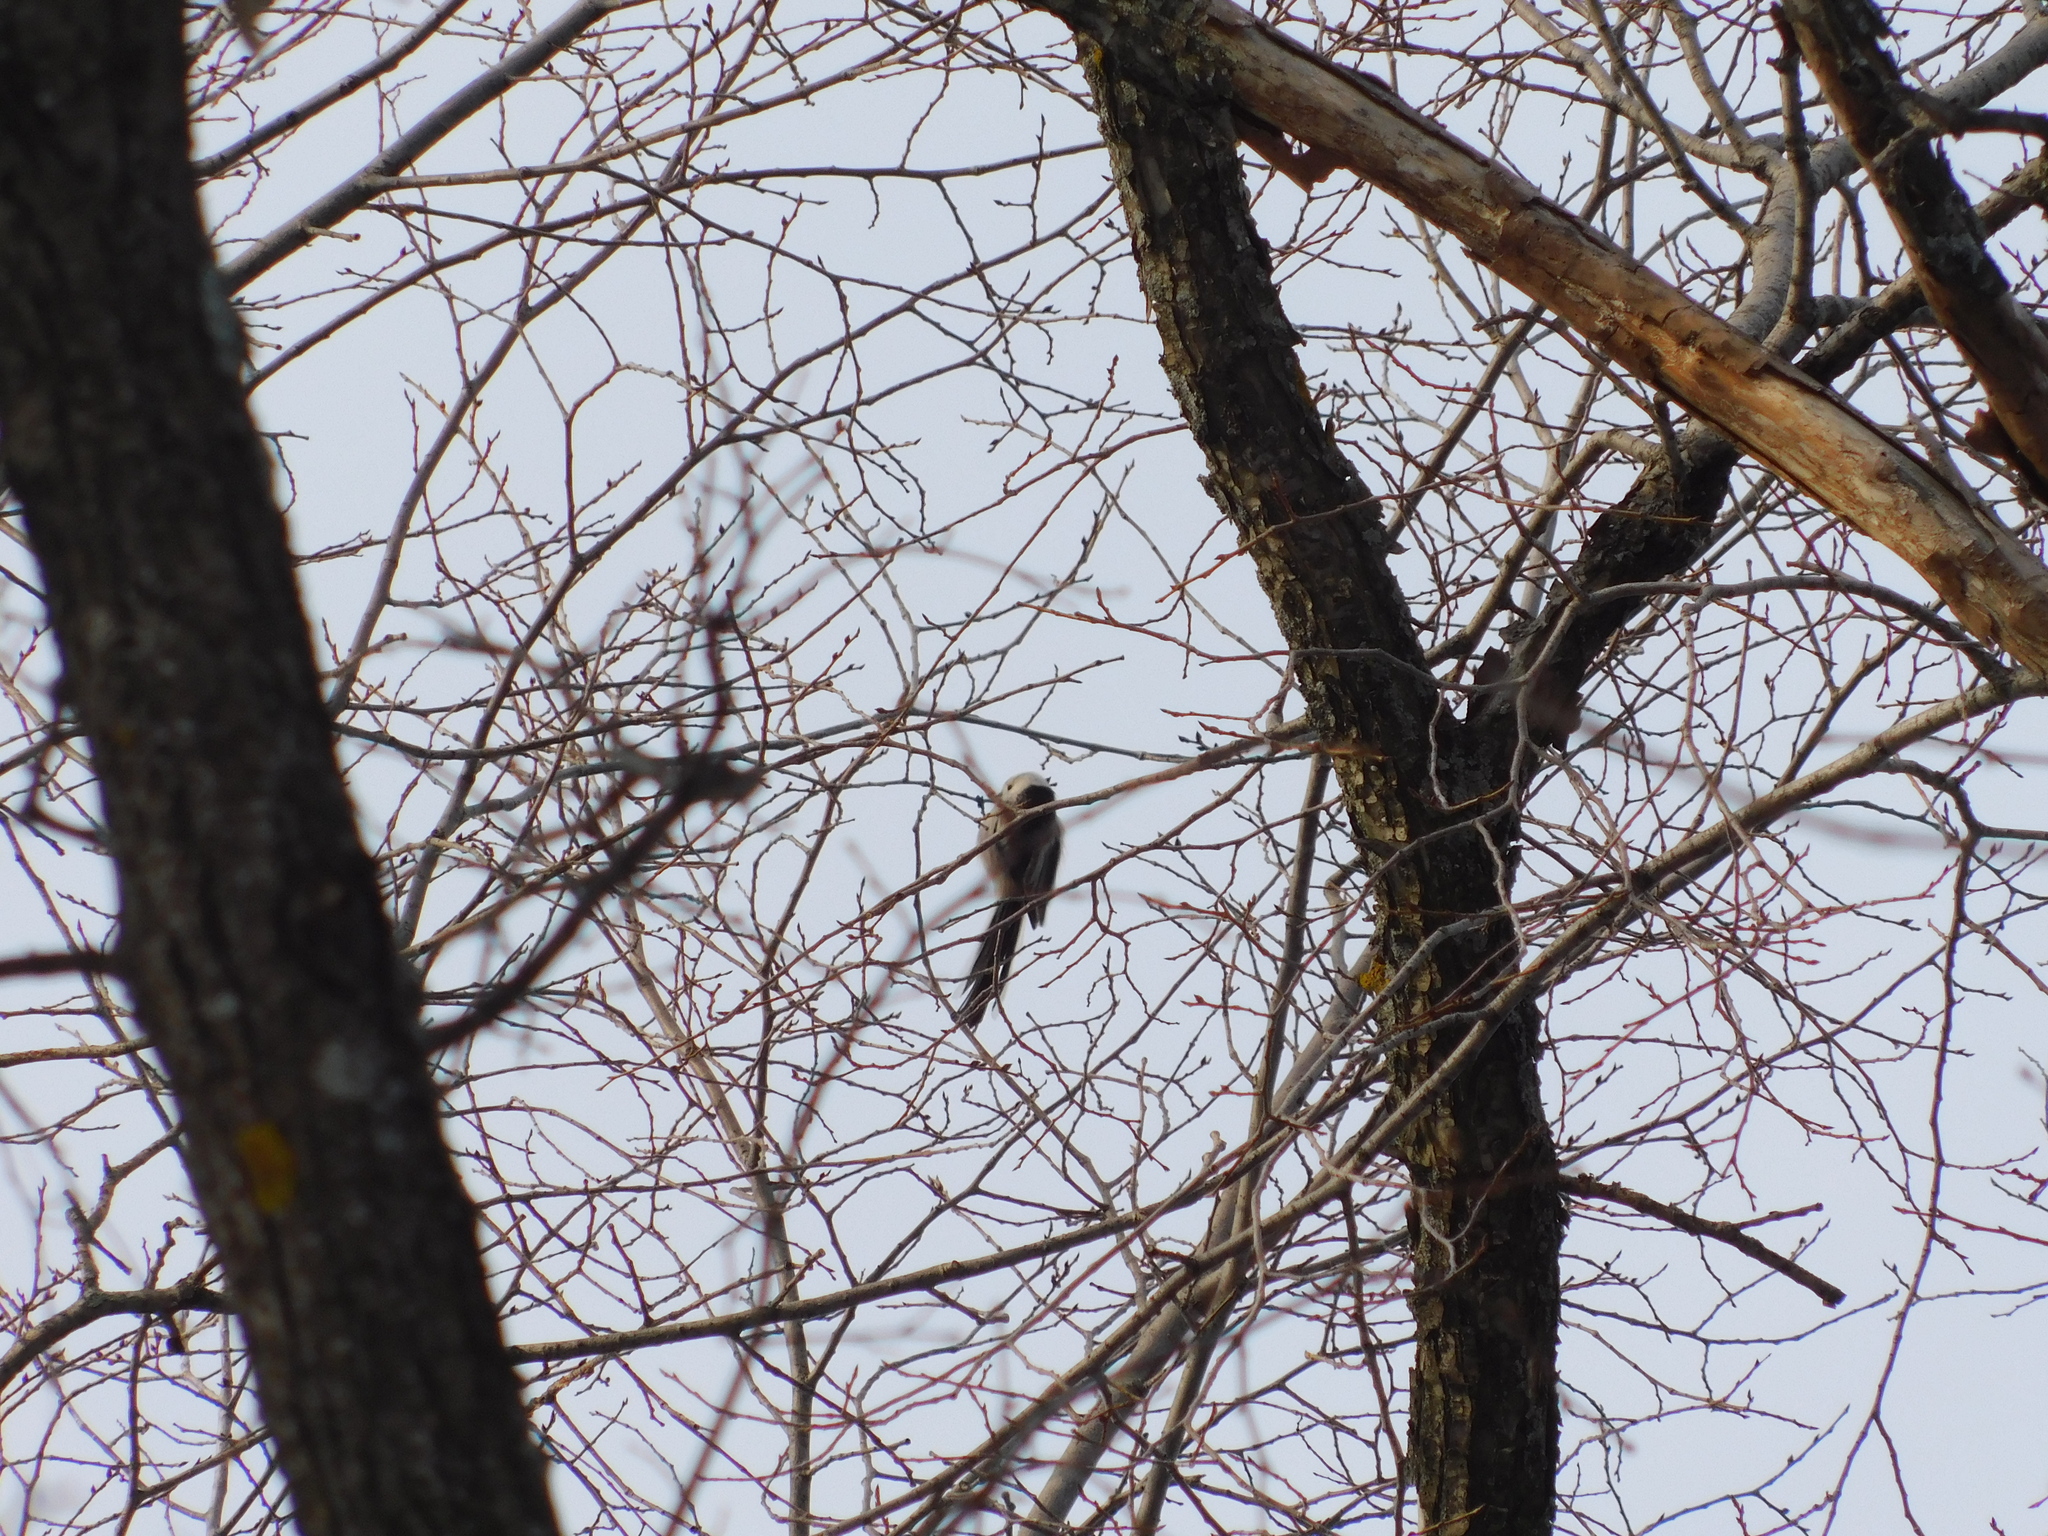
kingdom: Animalia
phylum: Chordata
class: Aves
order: Passeriformes
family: Aegithalidae
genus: Aegithalos
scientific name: Aegithalos caudatus
